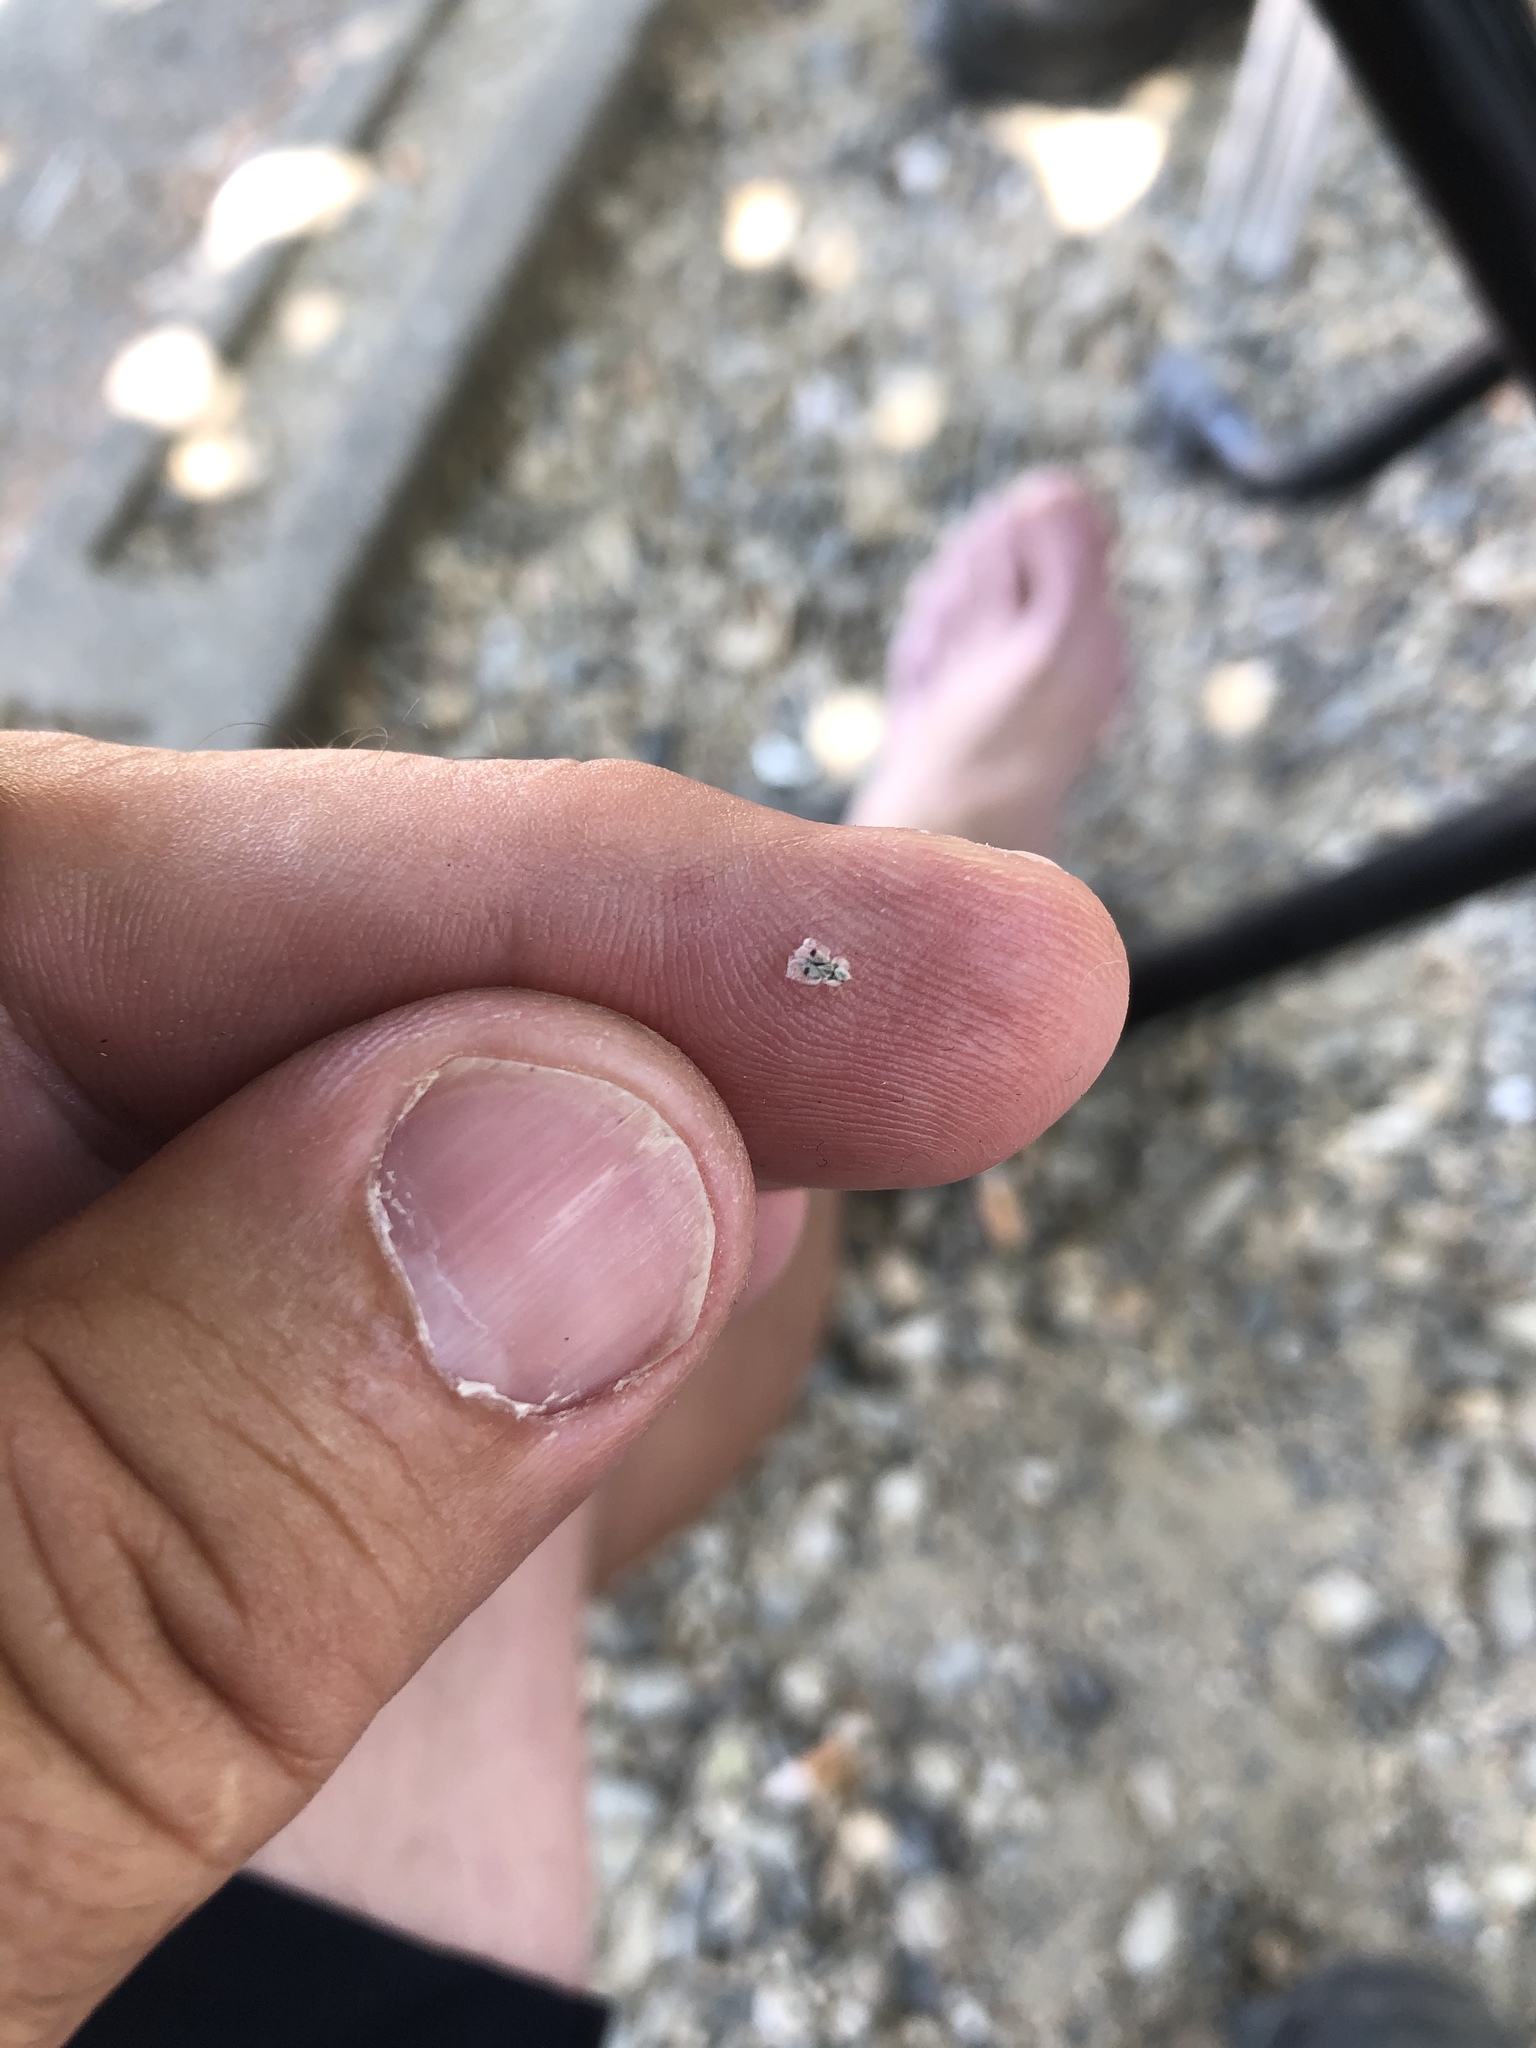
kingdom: Animalia
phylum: Arthropoda
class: Insecta
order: Hemiptera
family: Tingidae
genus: Corythucha
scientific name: Corythucha ciliata
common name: Sycamore lace bug
